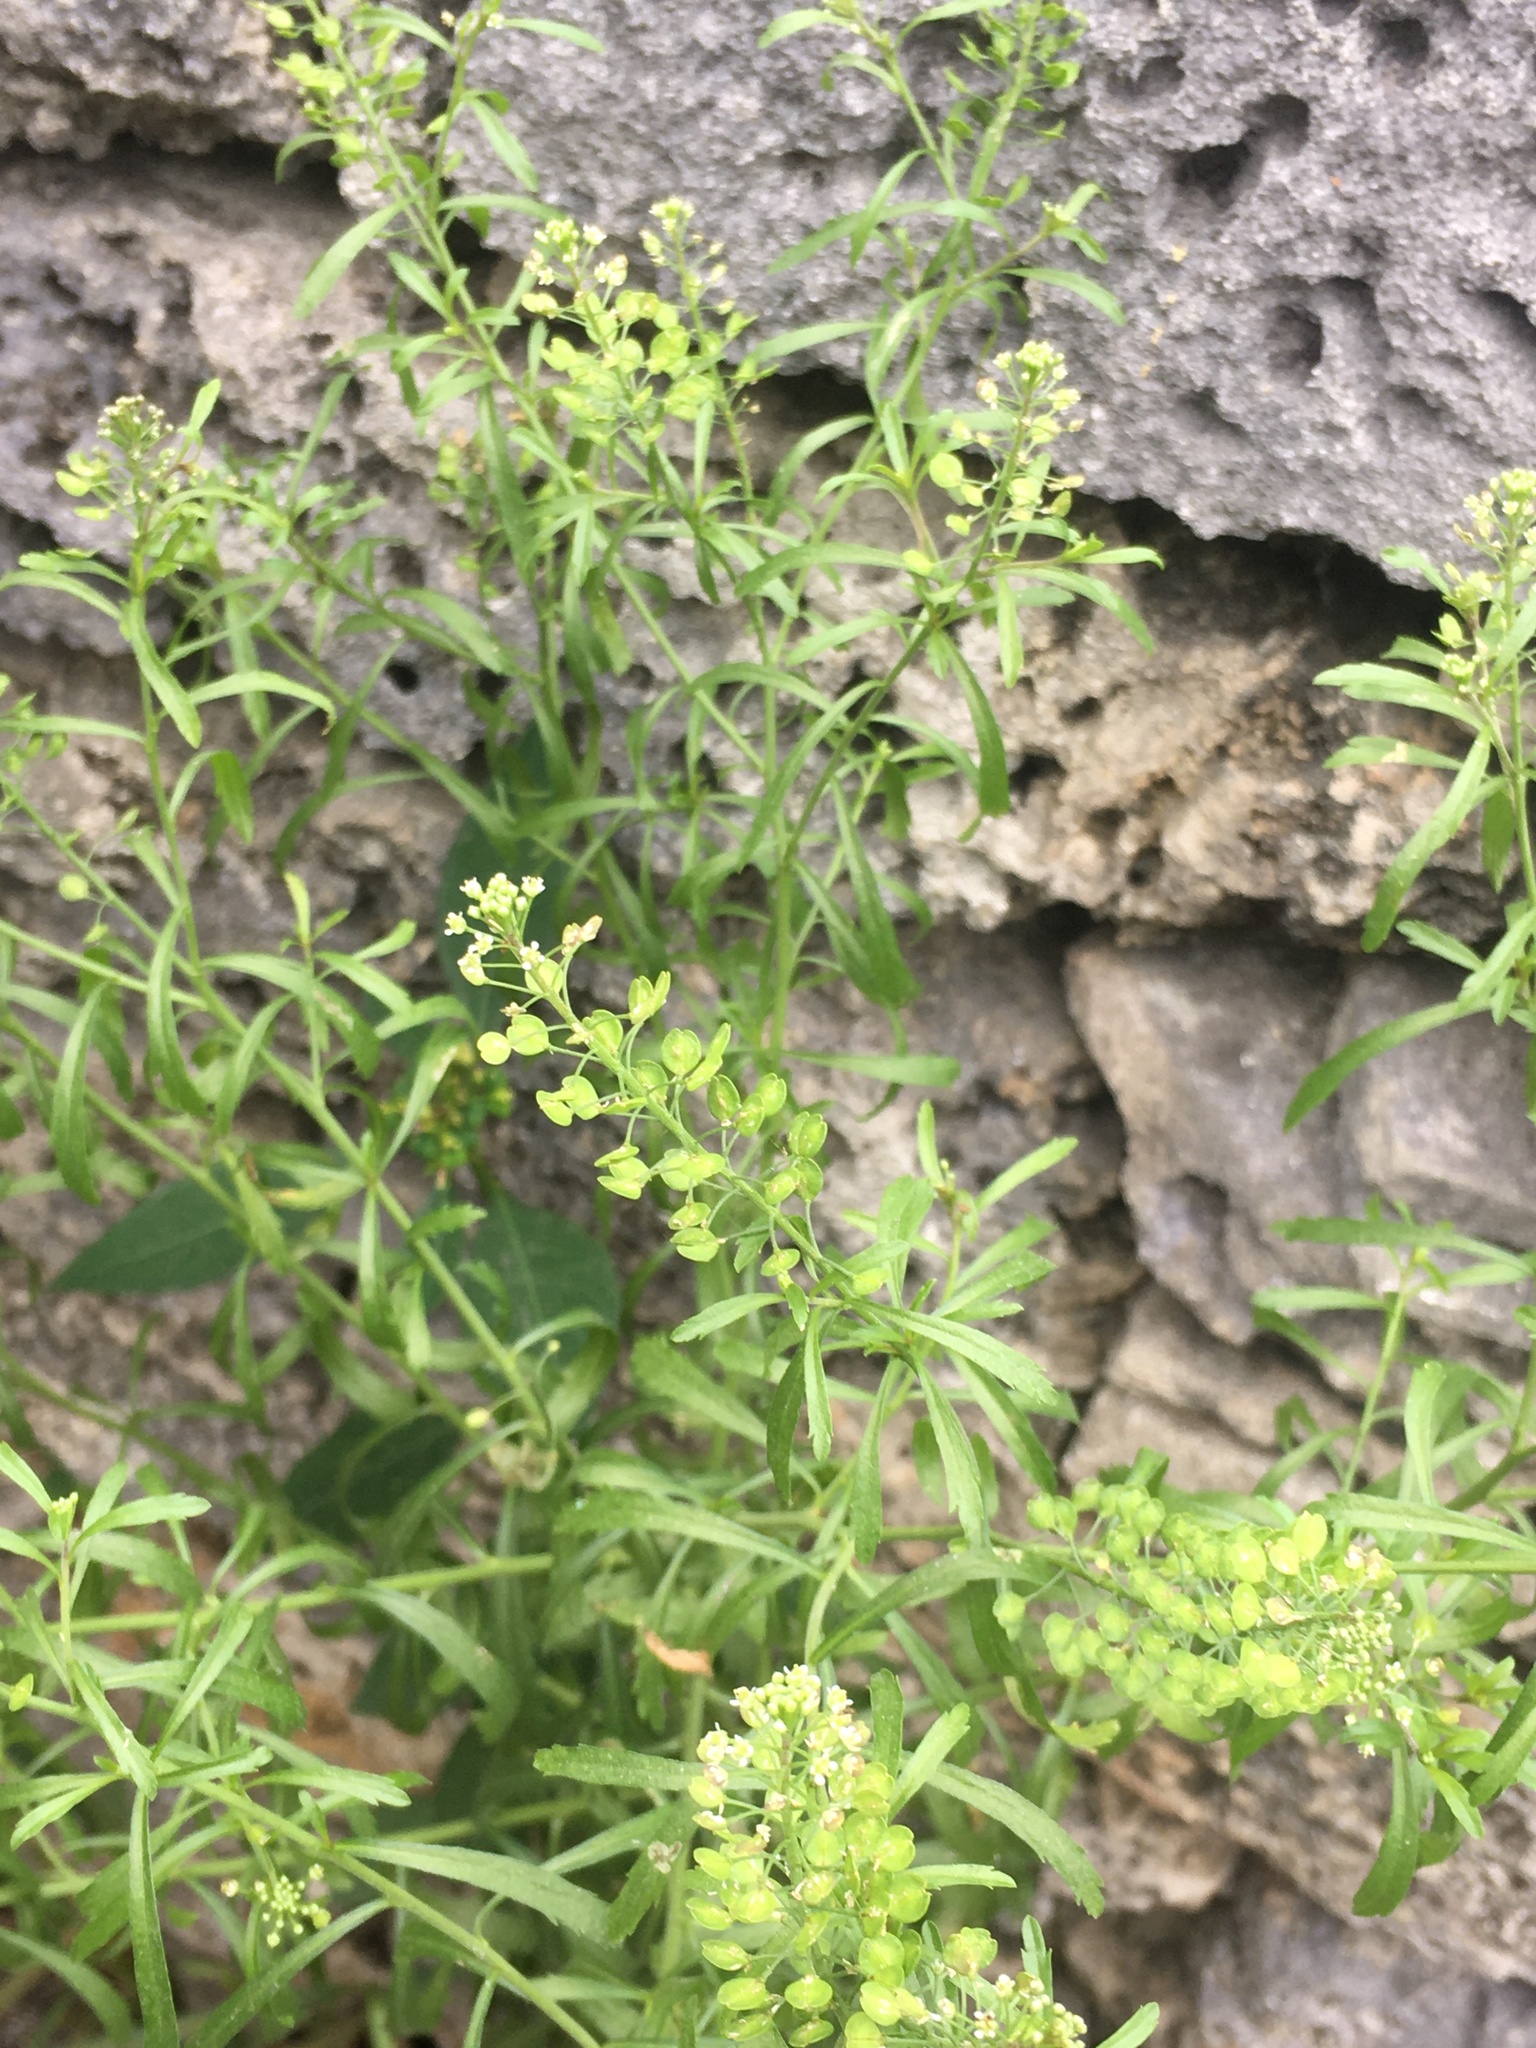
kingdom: Plantae
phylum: Tracheophyta
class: Magnoliopsida
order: Brassicales
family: Brassicaceae
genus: Lepidium
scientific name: Lepidium virginicum
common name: Least pepperwort
